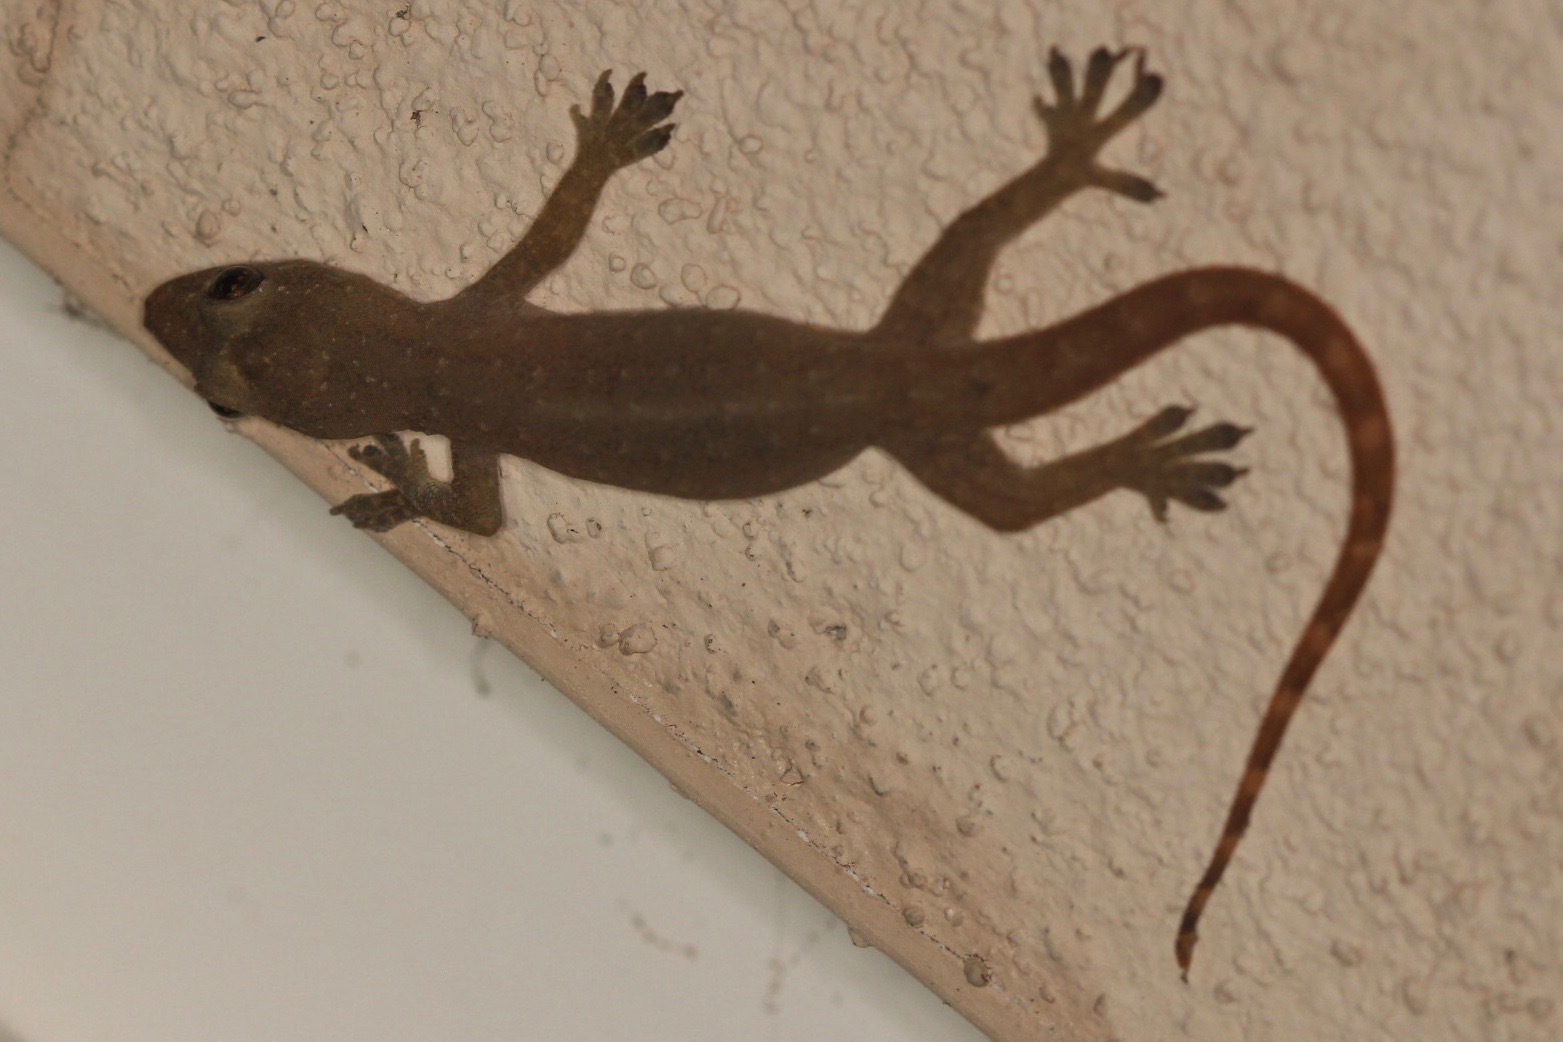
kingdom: Animalia
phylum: Chordata
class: Squamata
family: Gekkonidae
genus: Hemidactylus
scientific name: Hemidactylus garnotii
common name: Indo-pacific gecko
